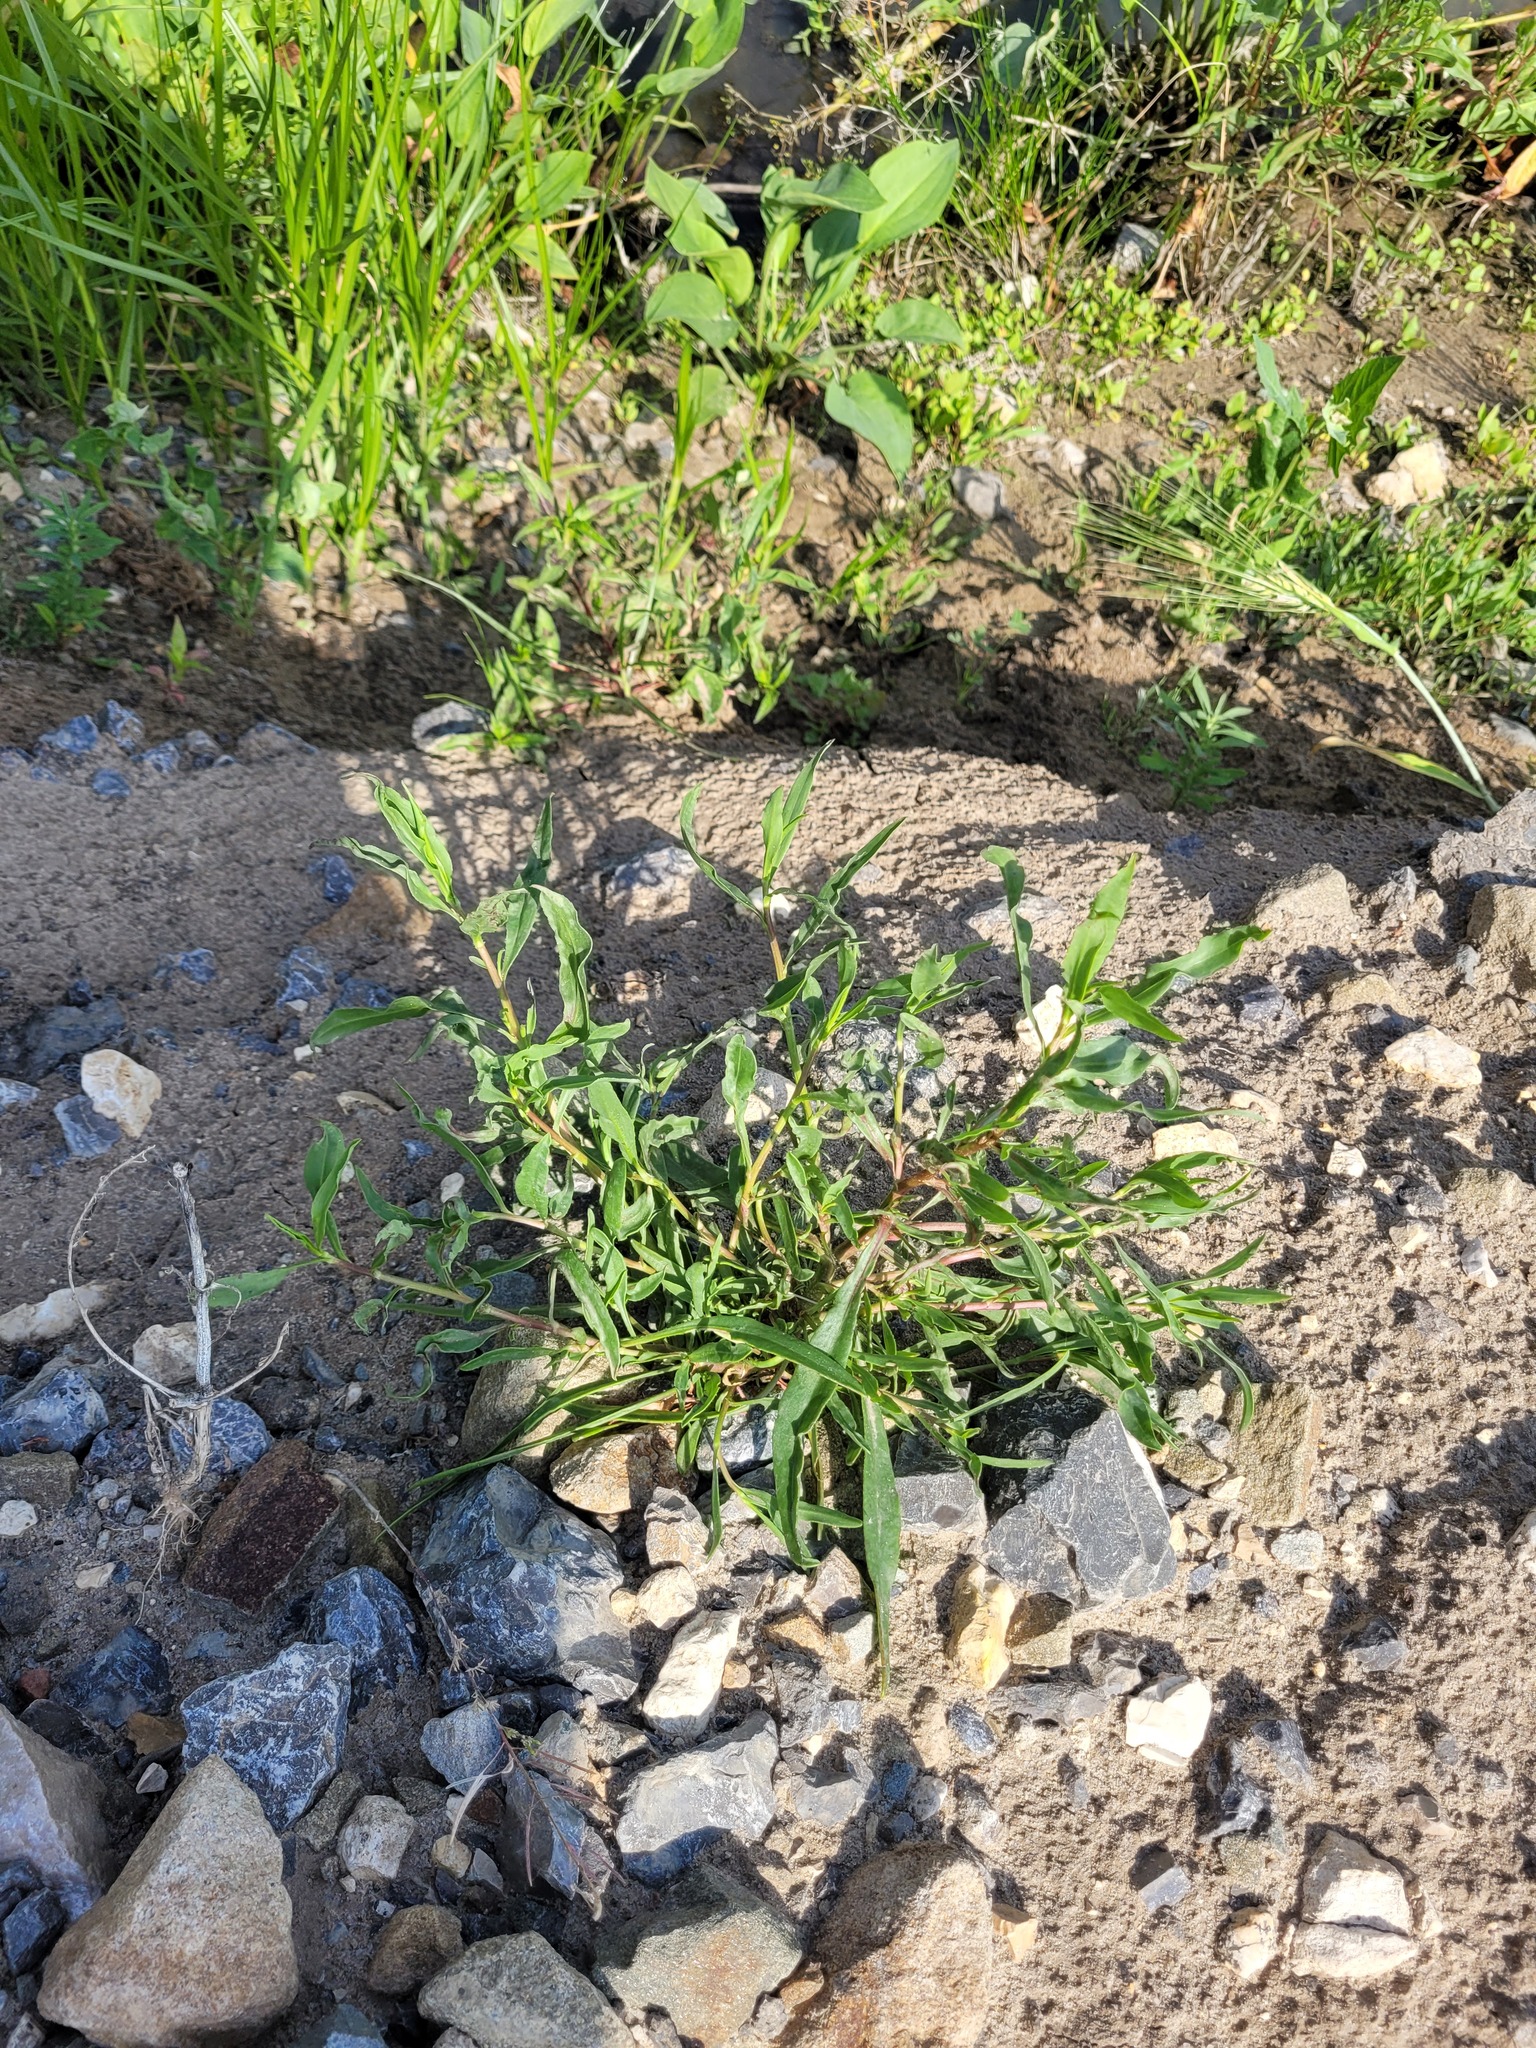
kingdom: Plantae
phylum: Tracheophyta
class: Magnoliopsida
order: Asterales
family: Asteraceae
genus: Tripolium
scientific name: Tripolium pannonicum
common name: Sea aster
